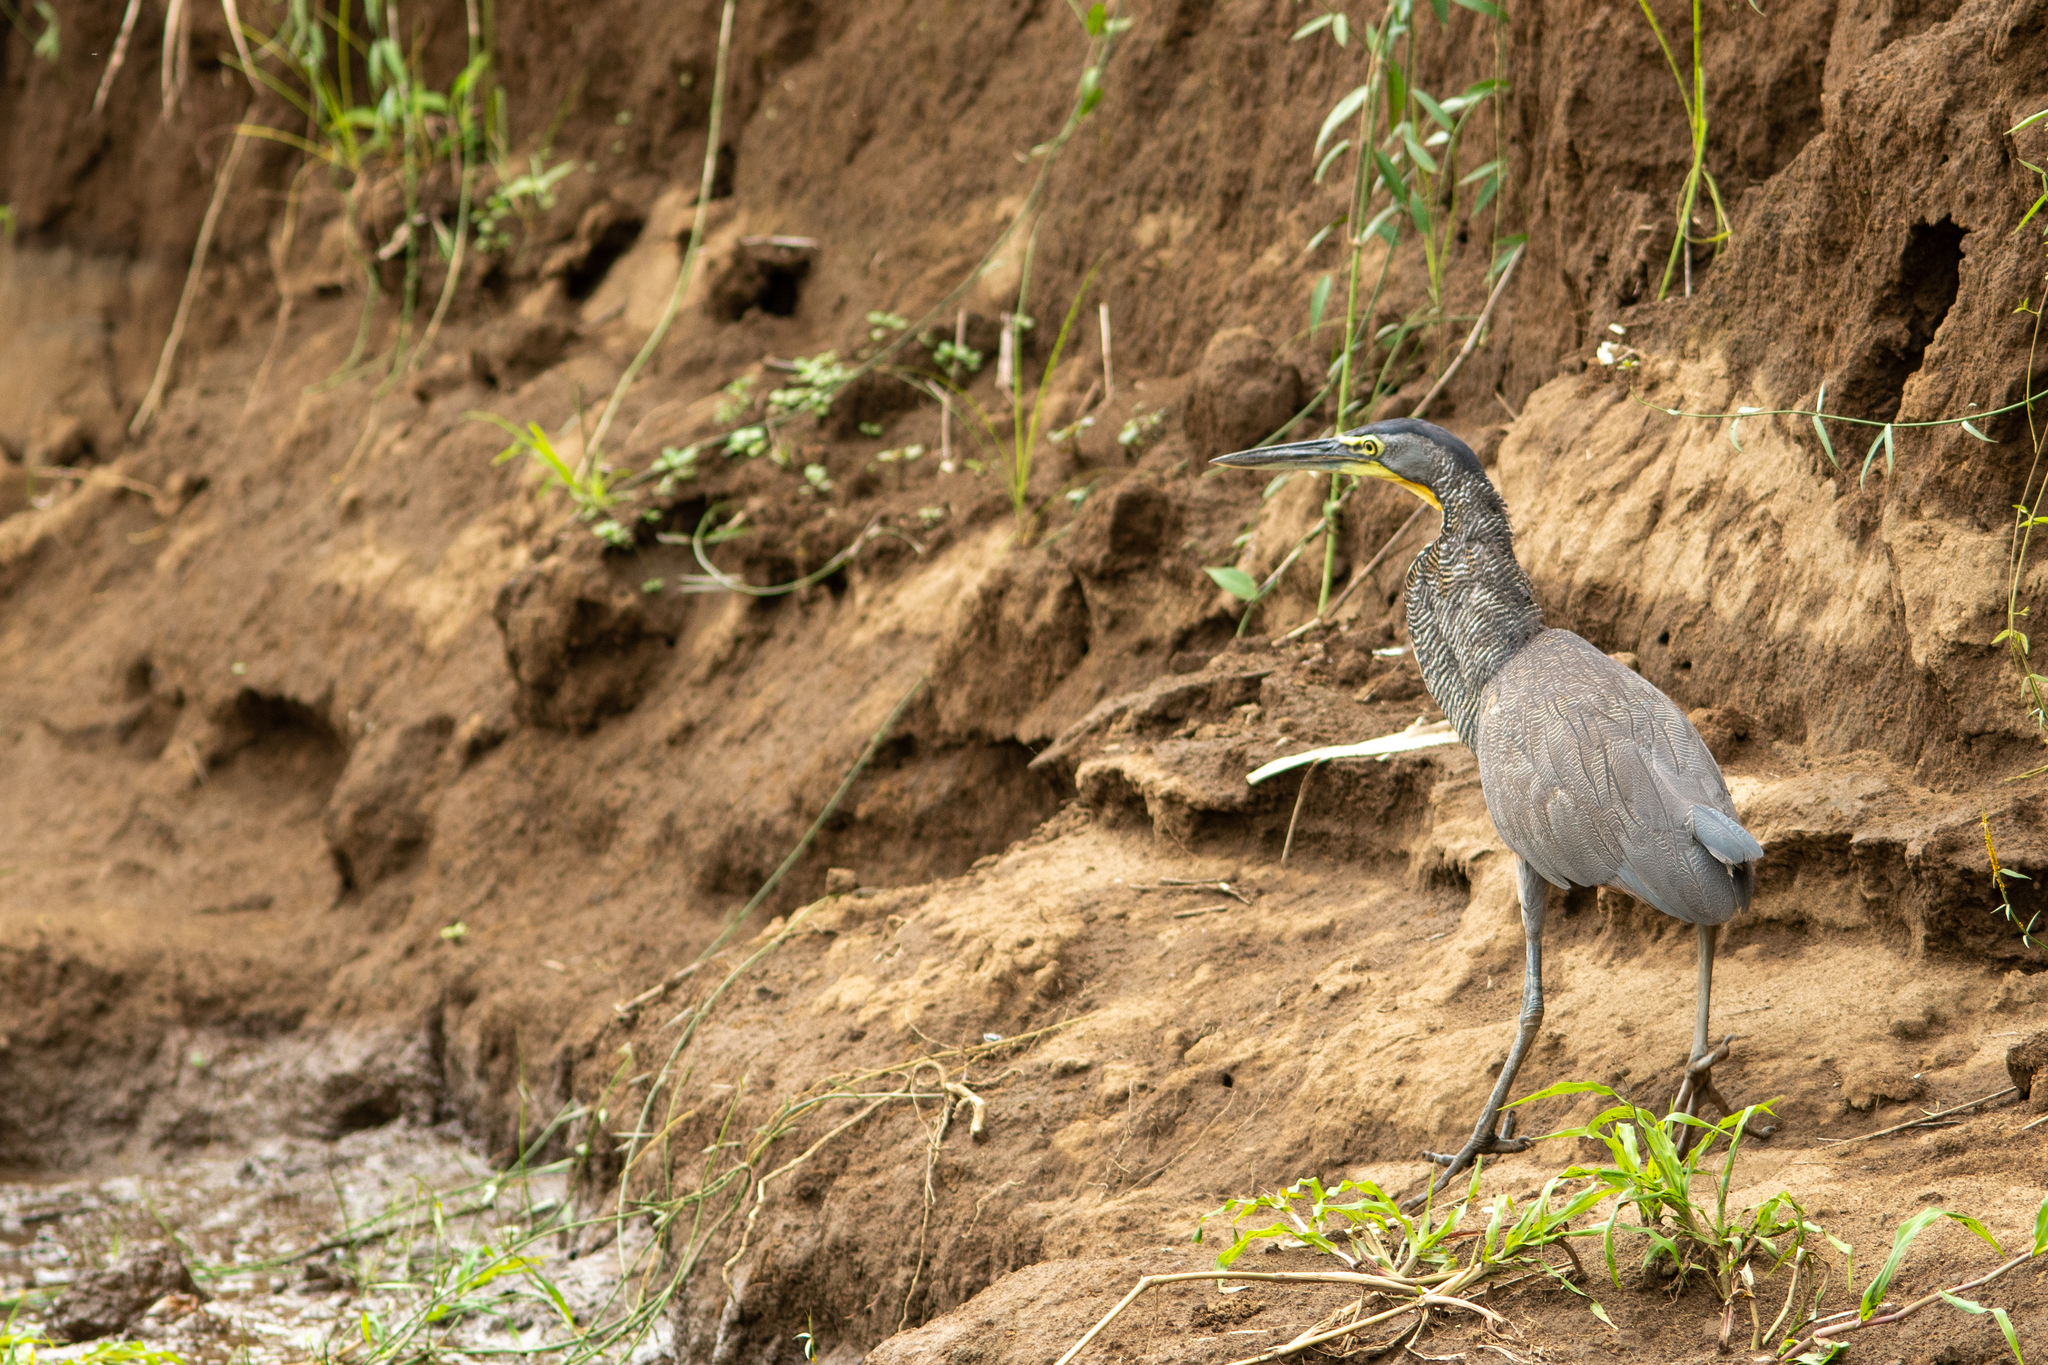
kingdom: Animalia
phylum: Chordata
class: Aves
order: Pelecaniformes
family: Ardeidae
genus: Tigrisoma
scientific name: Tigrisoma mexicanum
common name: Bare-throated tiger-heron
